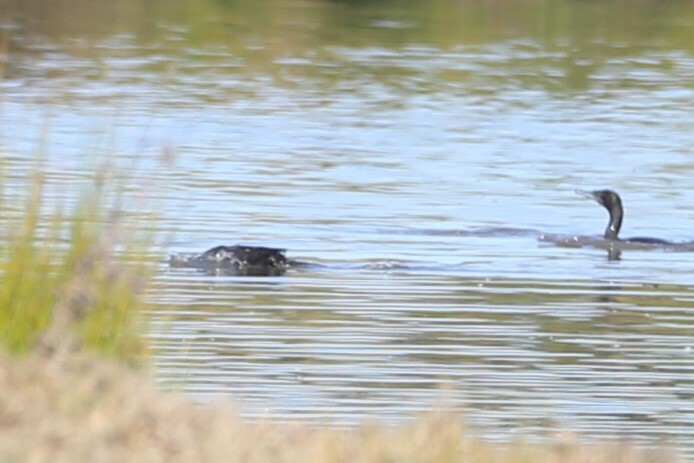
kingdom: Animalia
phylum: Chordata
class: Aves
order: Suliformes
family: Phalacrocoracidae
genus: Phalacrocorax
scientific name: Phalacrocorax sulcirostris
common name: Little black cormorant
